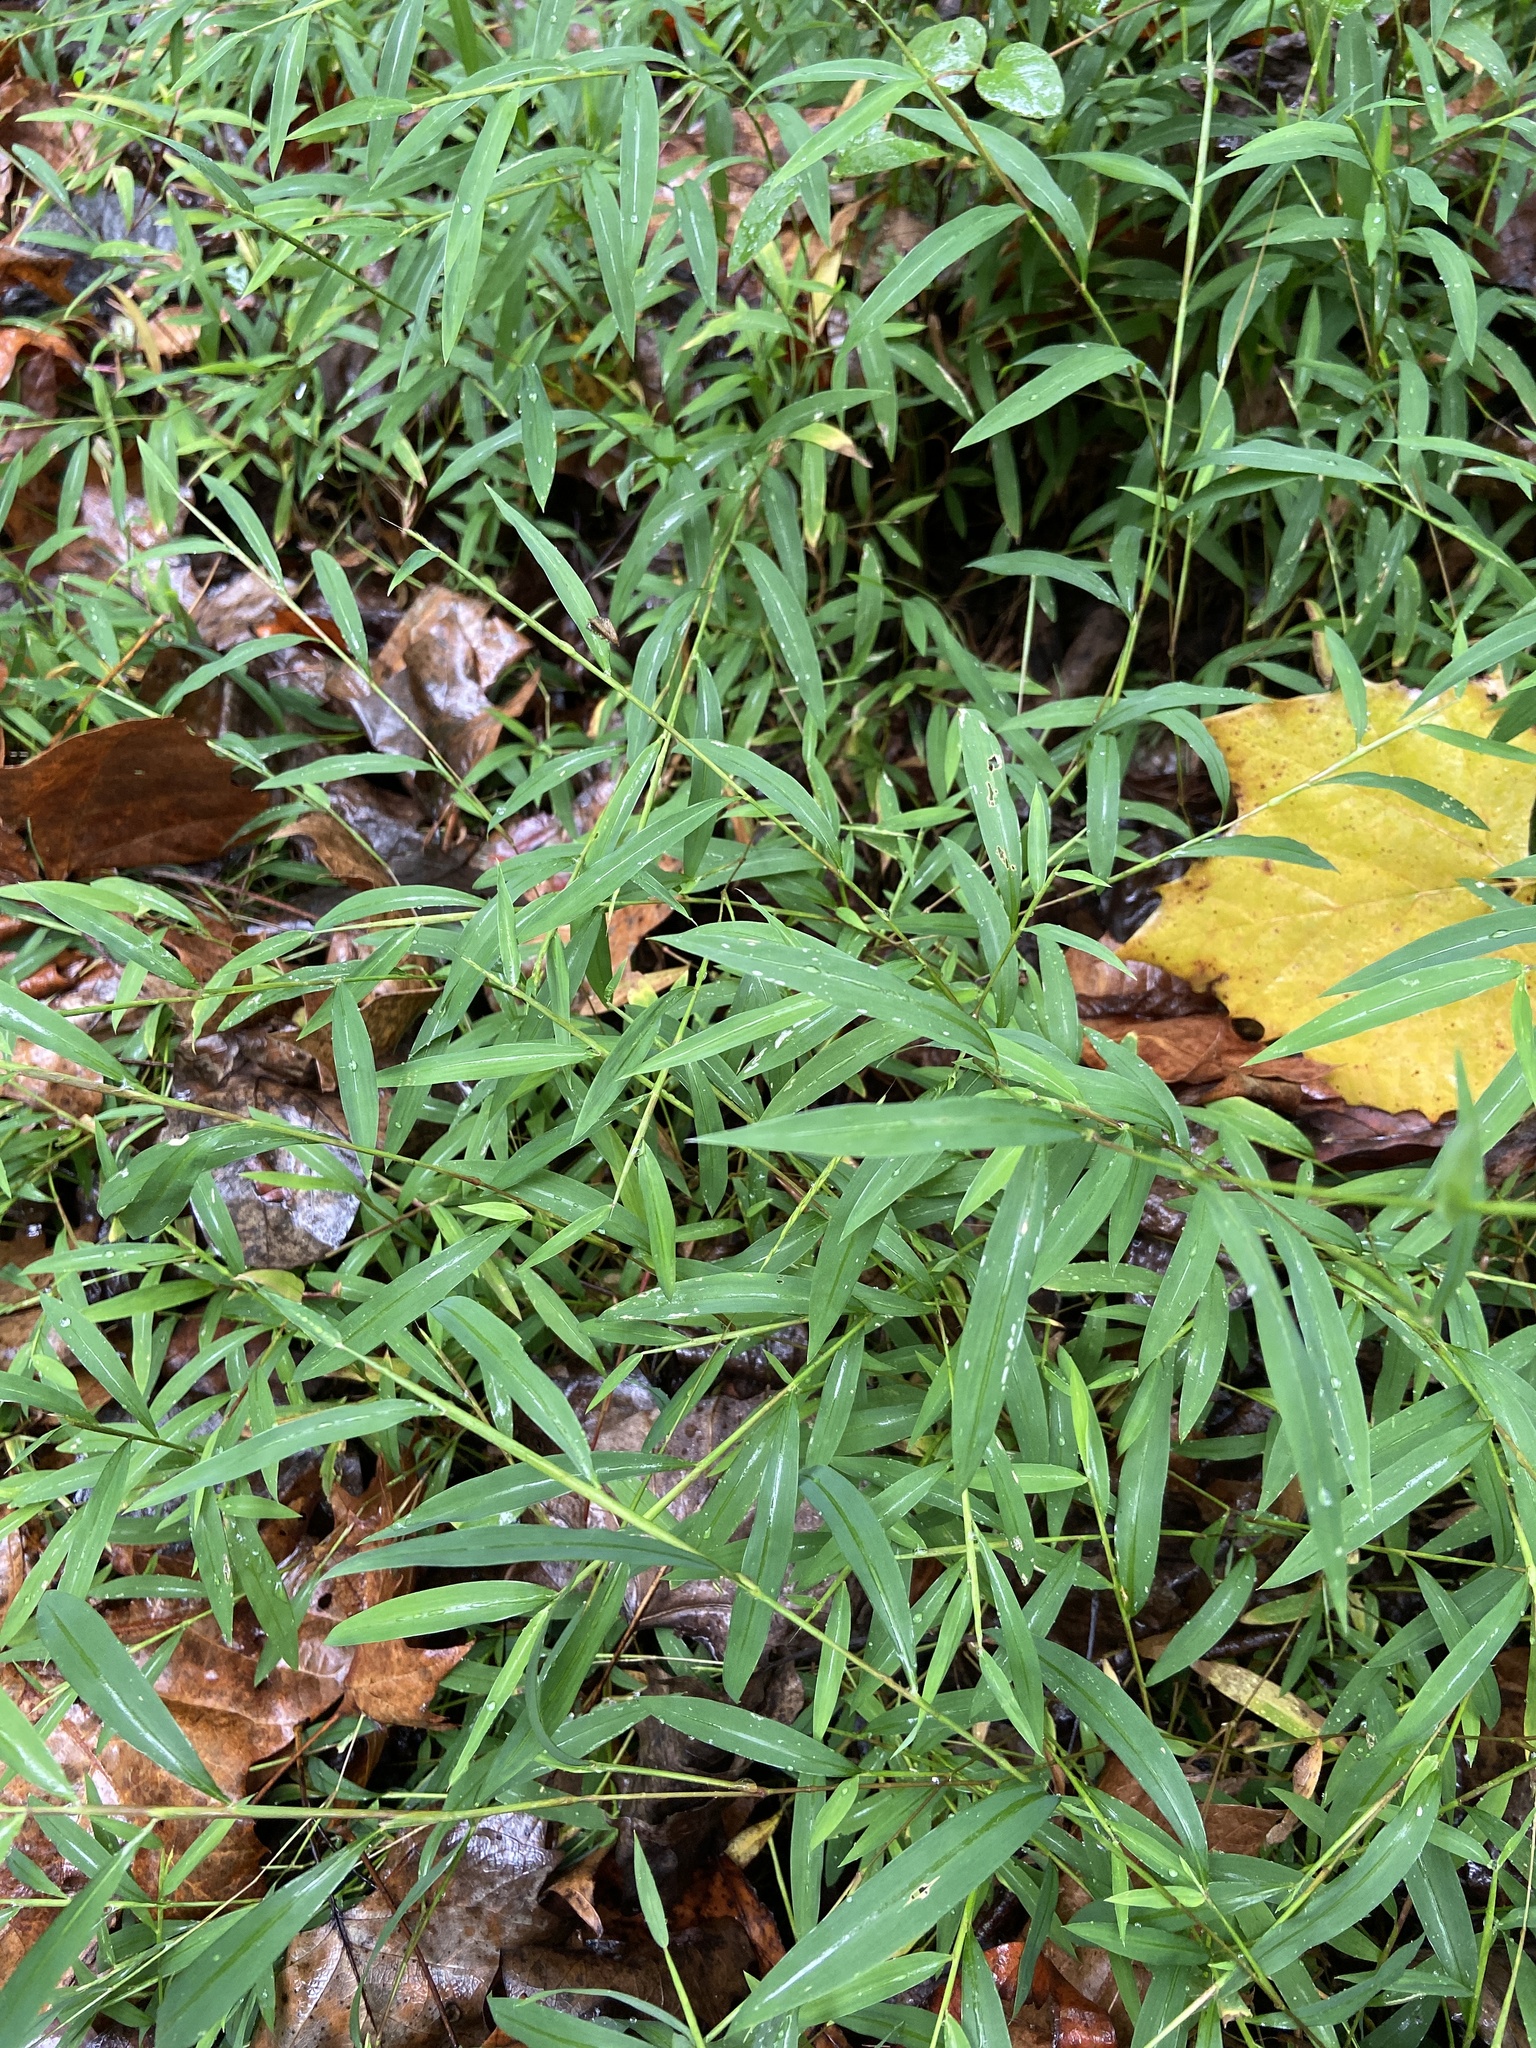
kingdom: Plantae
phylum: Tracheophyta
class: Liliopsida
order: Poales
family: Poaceae
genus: Microstegium
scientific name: Microstegium vimineum
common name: Japanese stiltgrass
